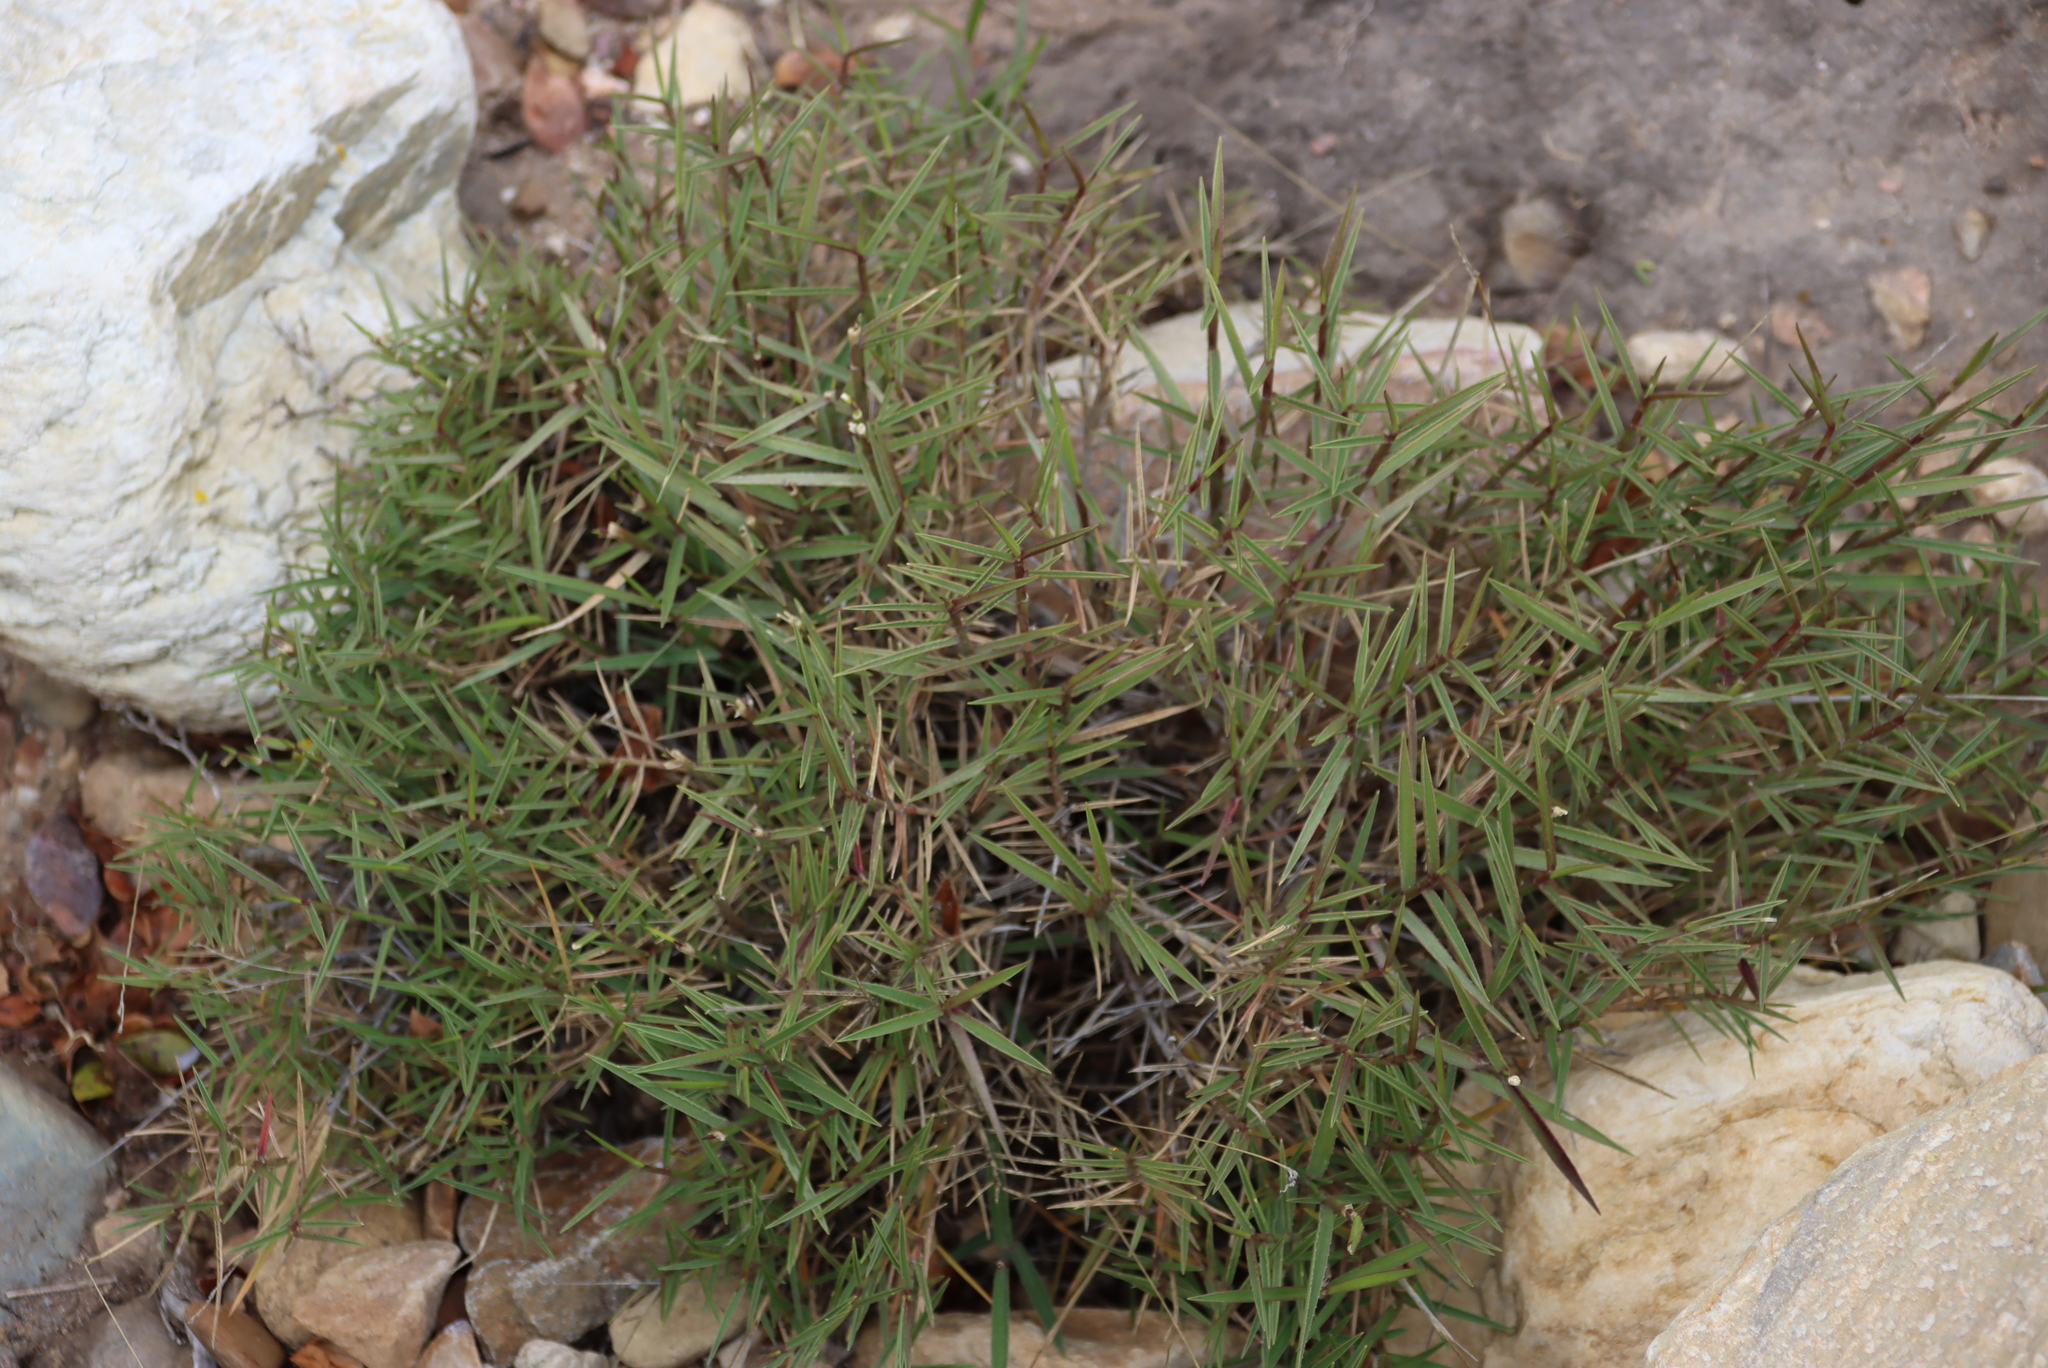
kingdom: Plantae
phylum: Tracheophyta
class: Liliopsida
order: Poales
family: Poaceae
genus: Urochloa
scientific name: Urochloa serrata
